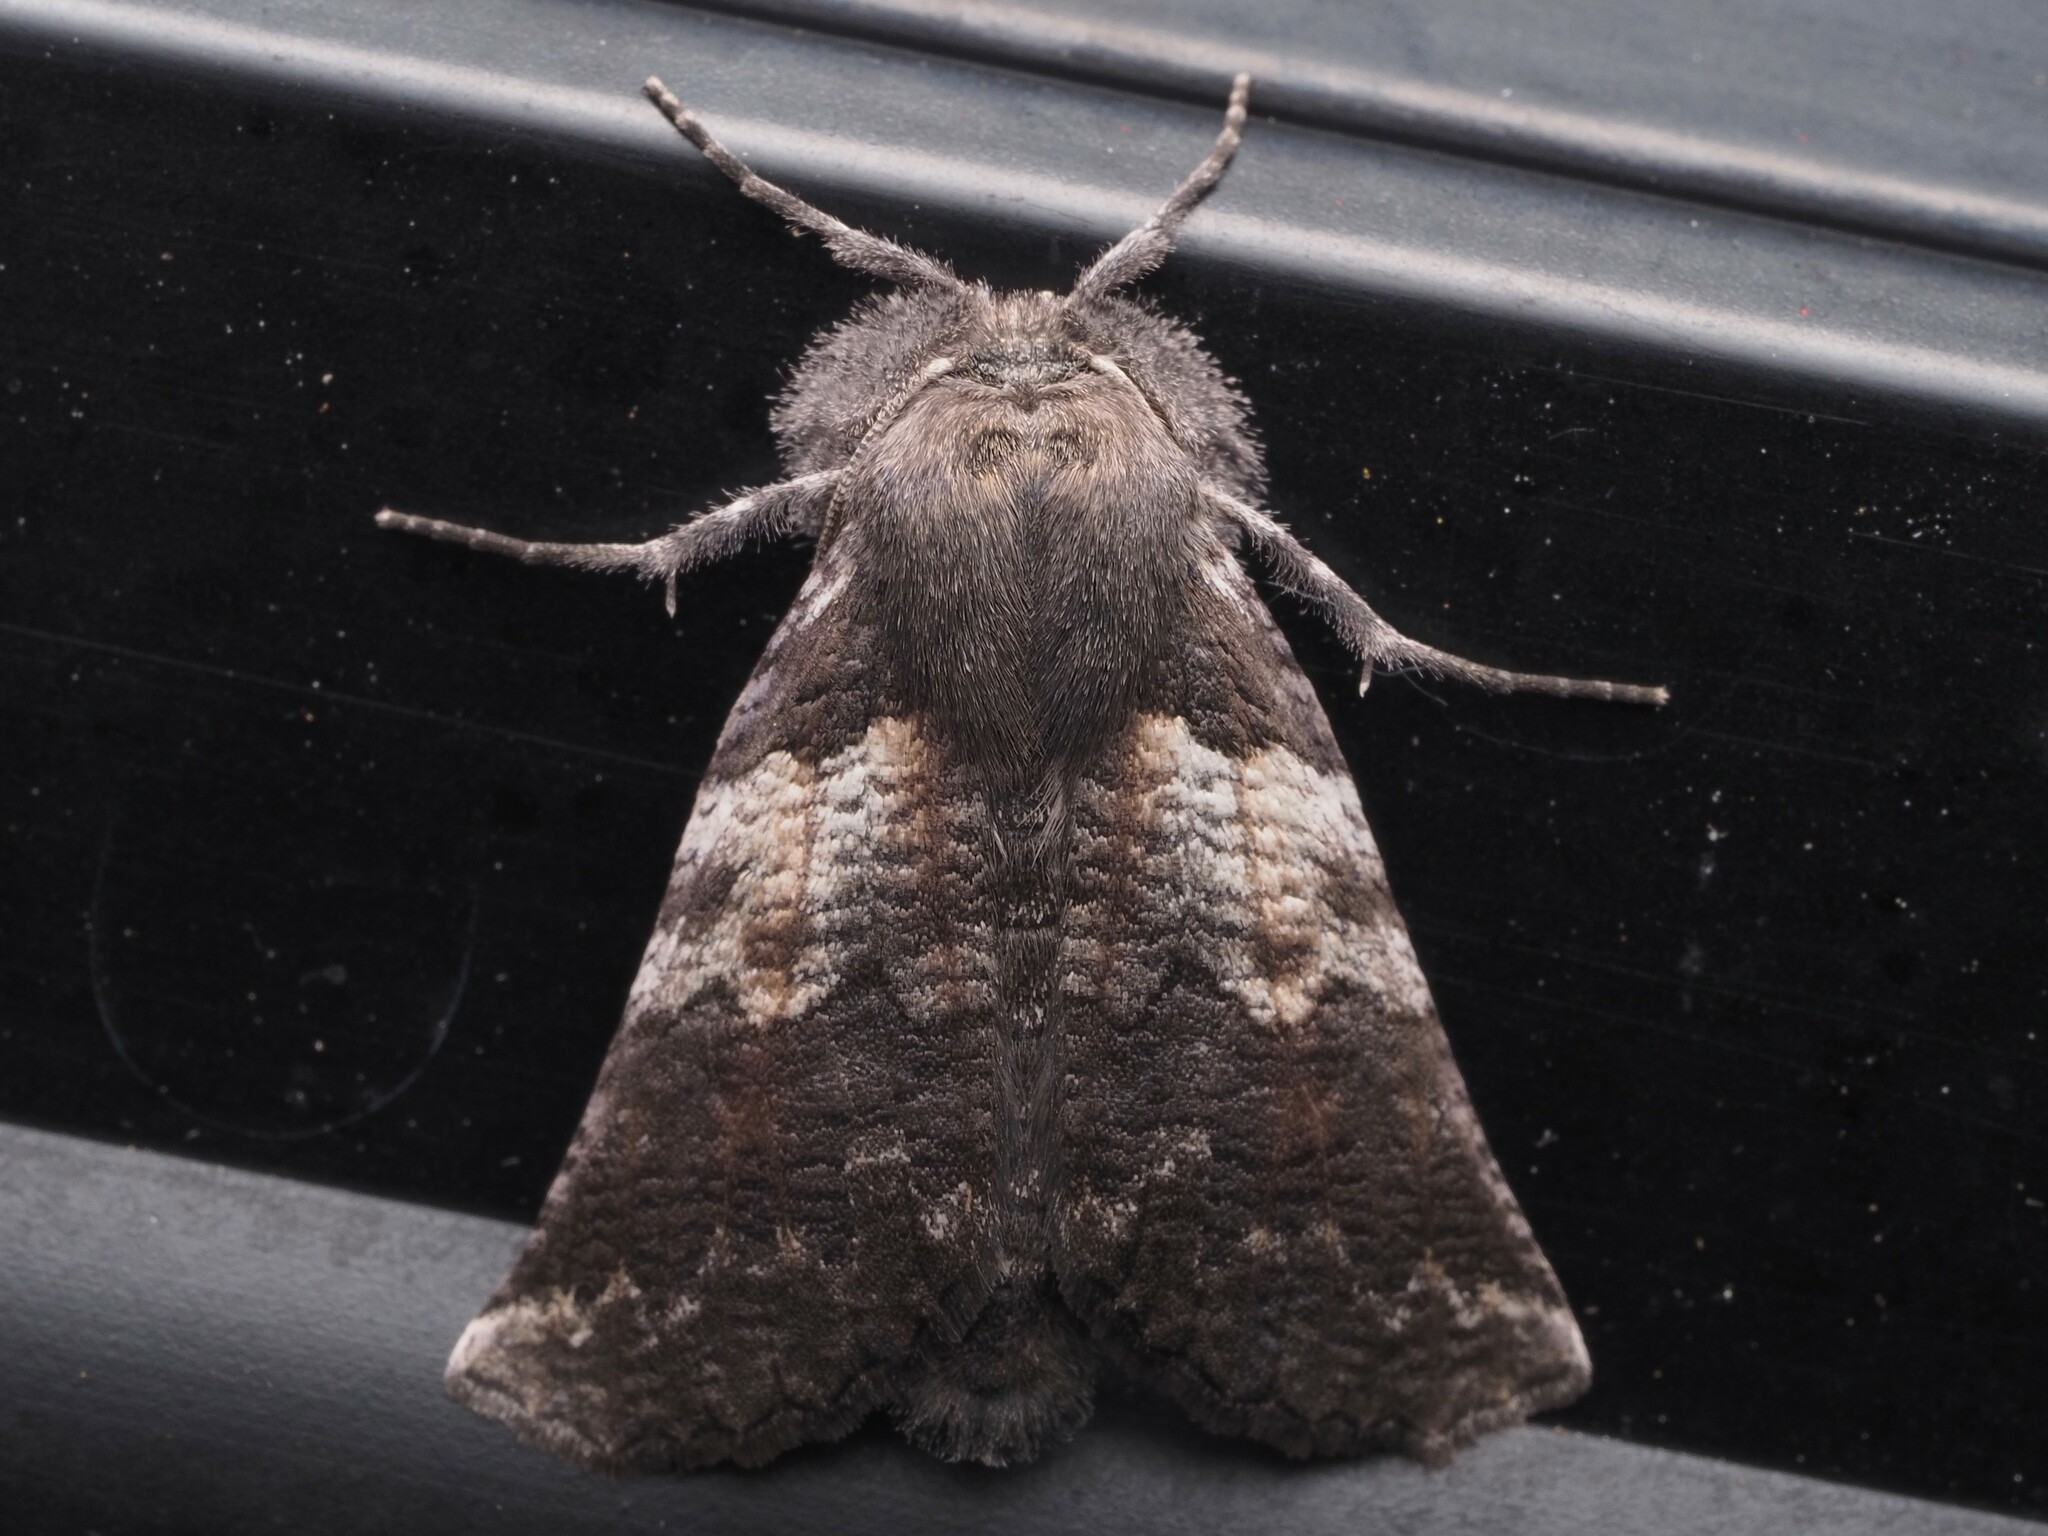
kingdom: Animalia
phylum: Arthropoda
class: Insecta
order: Lepidoptera
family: Geometridae
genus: Declana
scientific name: Declana
